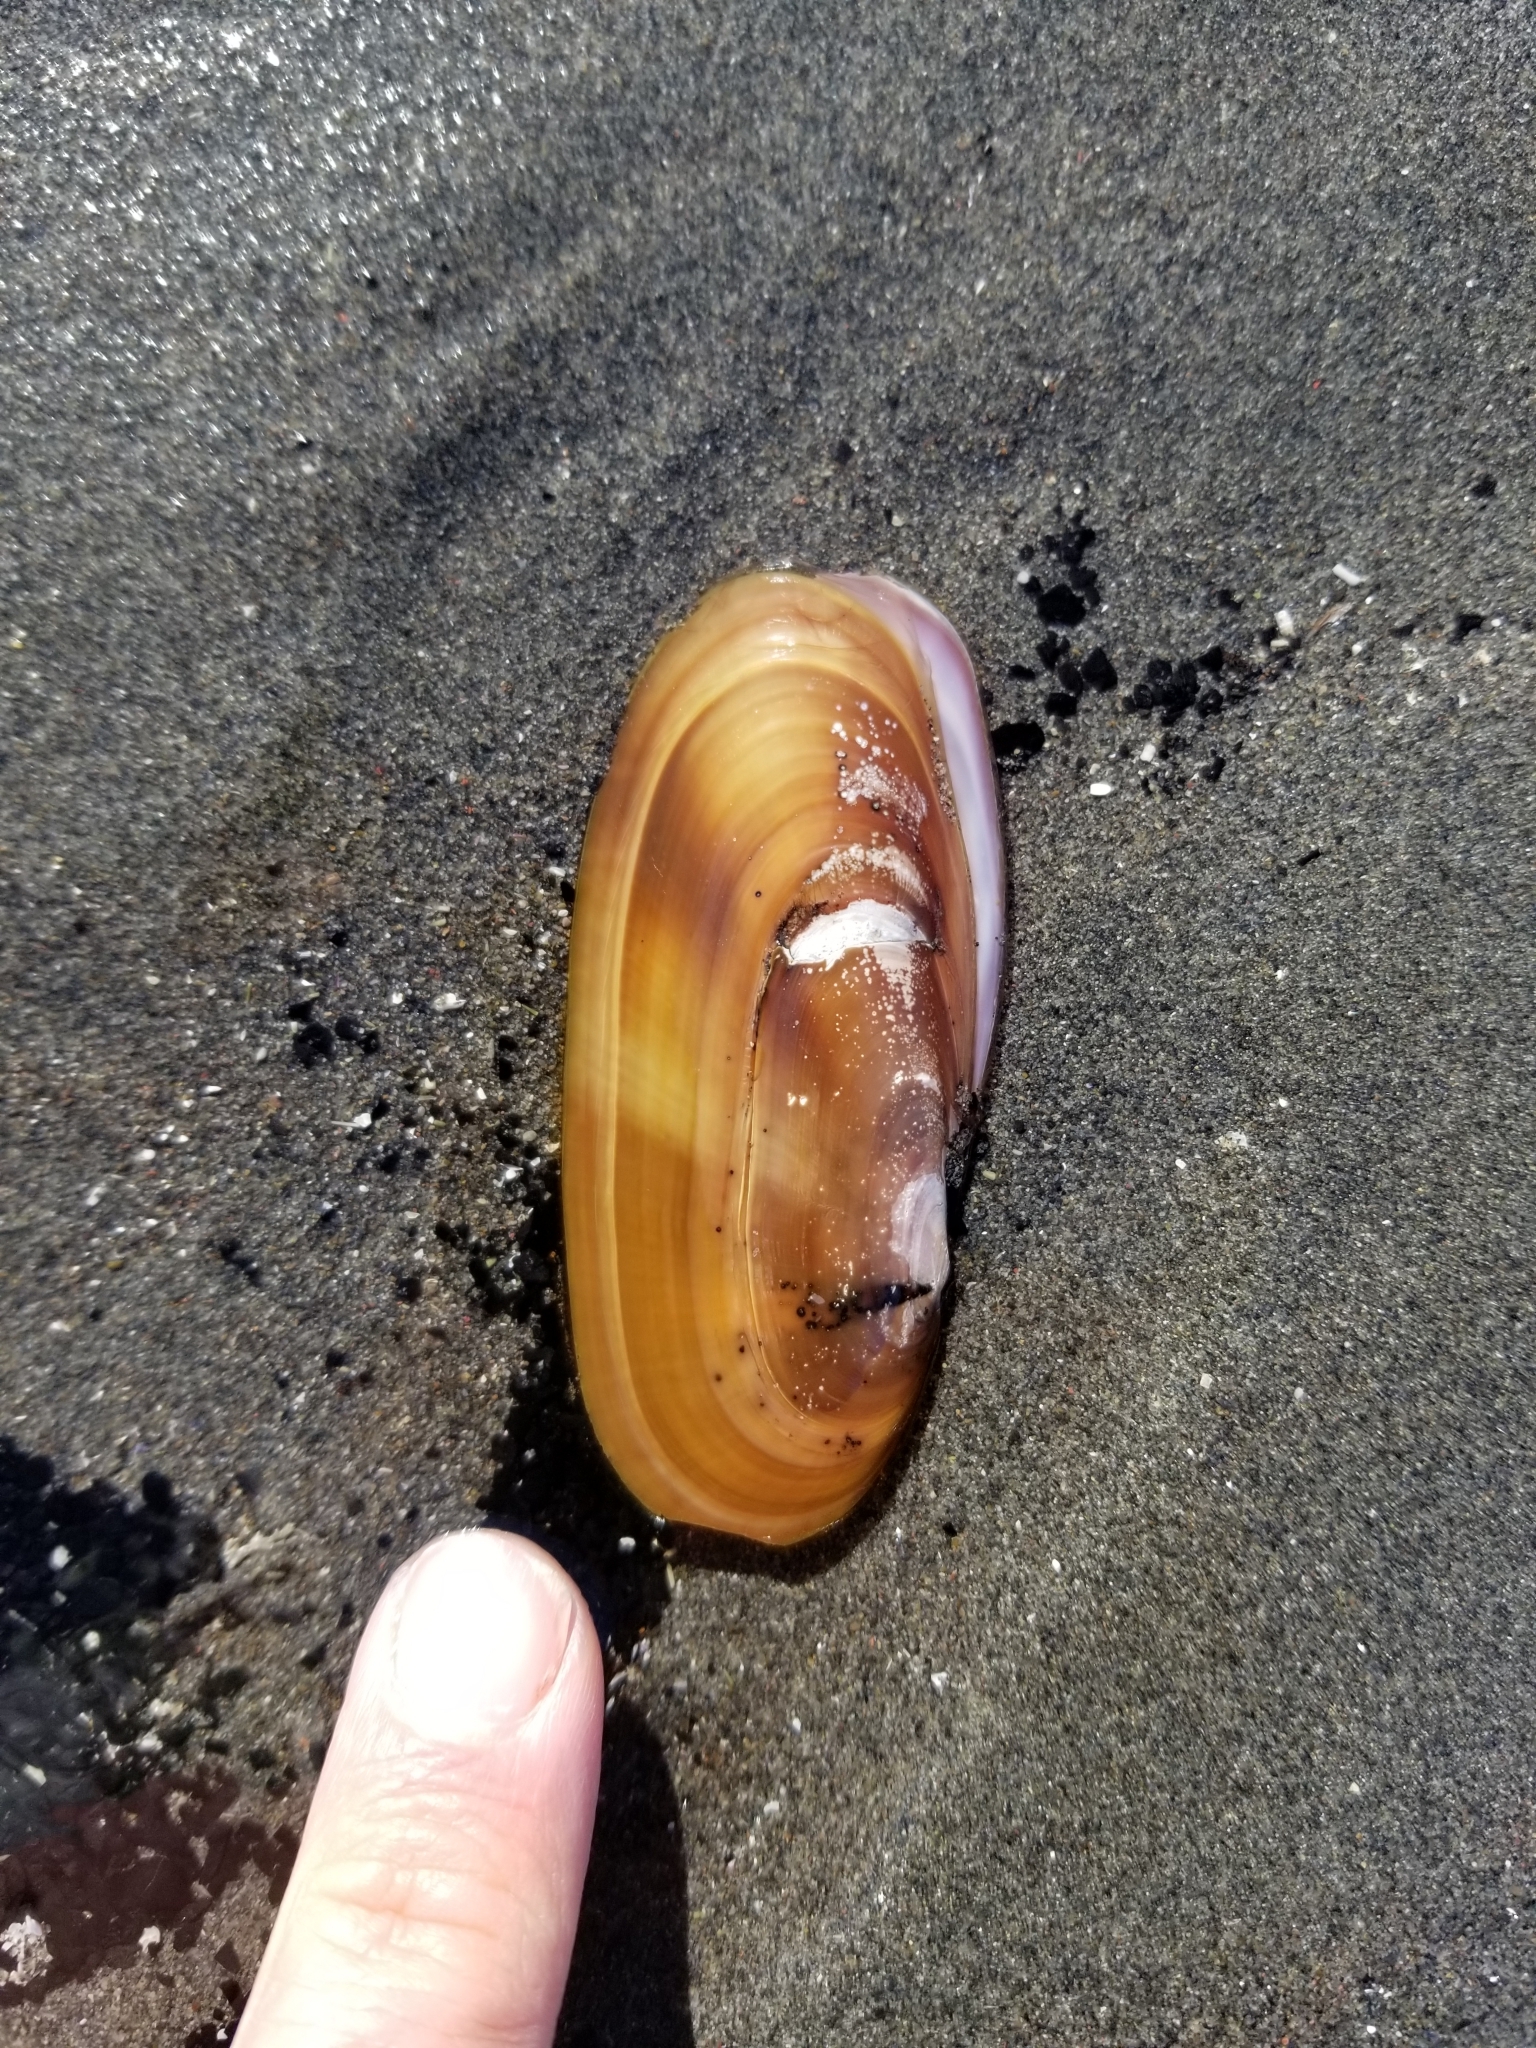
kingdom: Animalia
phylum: Mollusca
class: Bivalvia
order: Adapedonta
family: Pharidae
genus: Siliqua
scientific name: Siliqua patula
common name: Pacific razor clam
